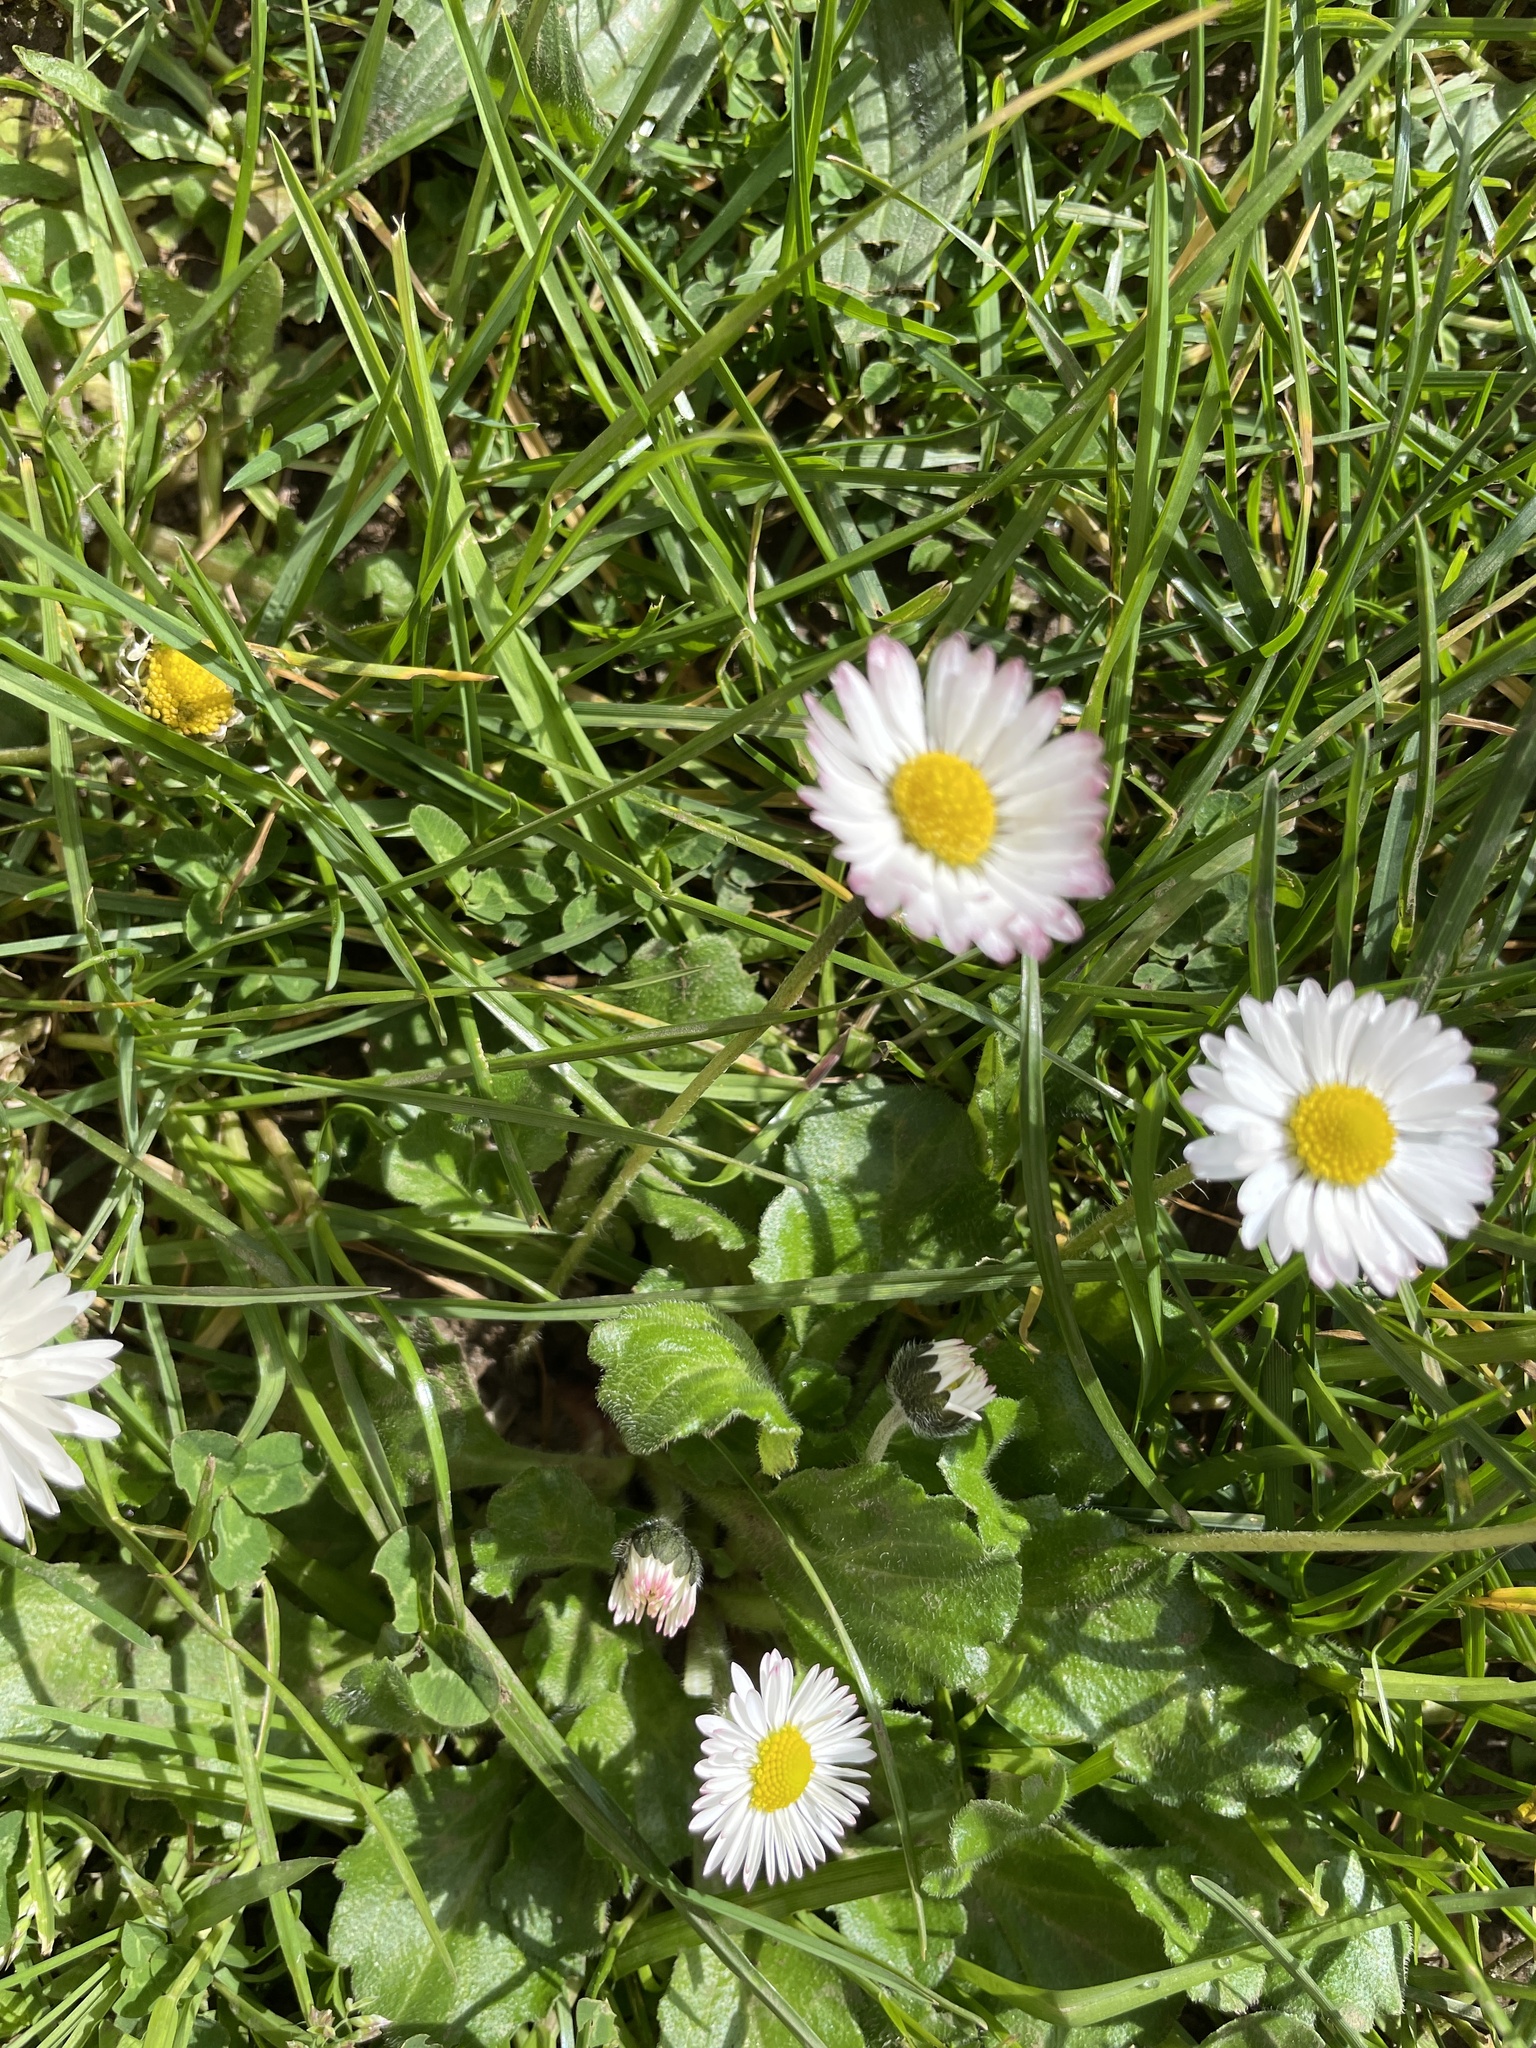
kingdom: Plantae
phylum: Tracheophyta
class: Magnoliopsida
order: Asterales
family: Asteraceae
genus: Bellis
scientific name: Bellis perennis
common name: Lawndaisy
